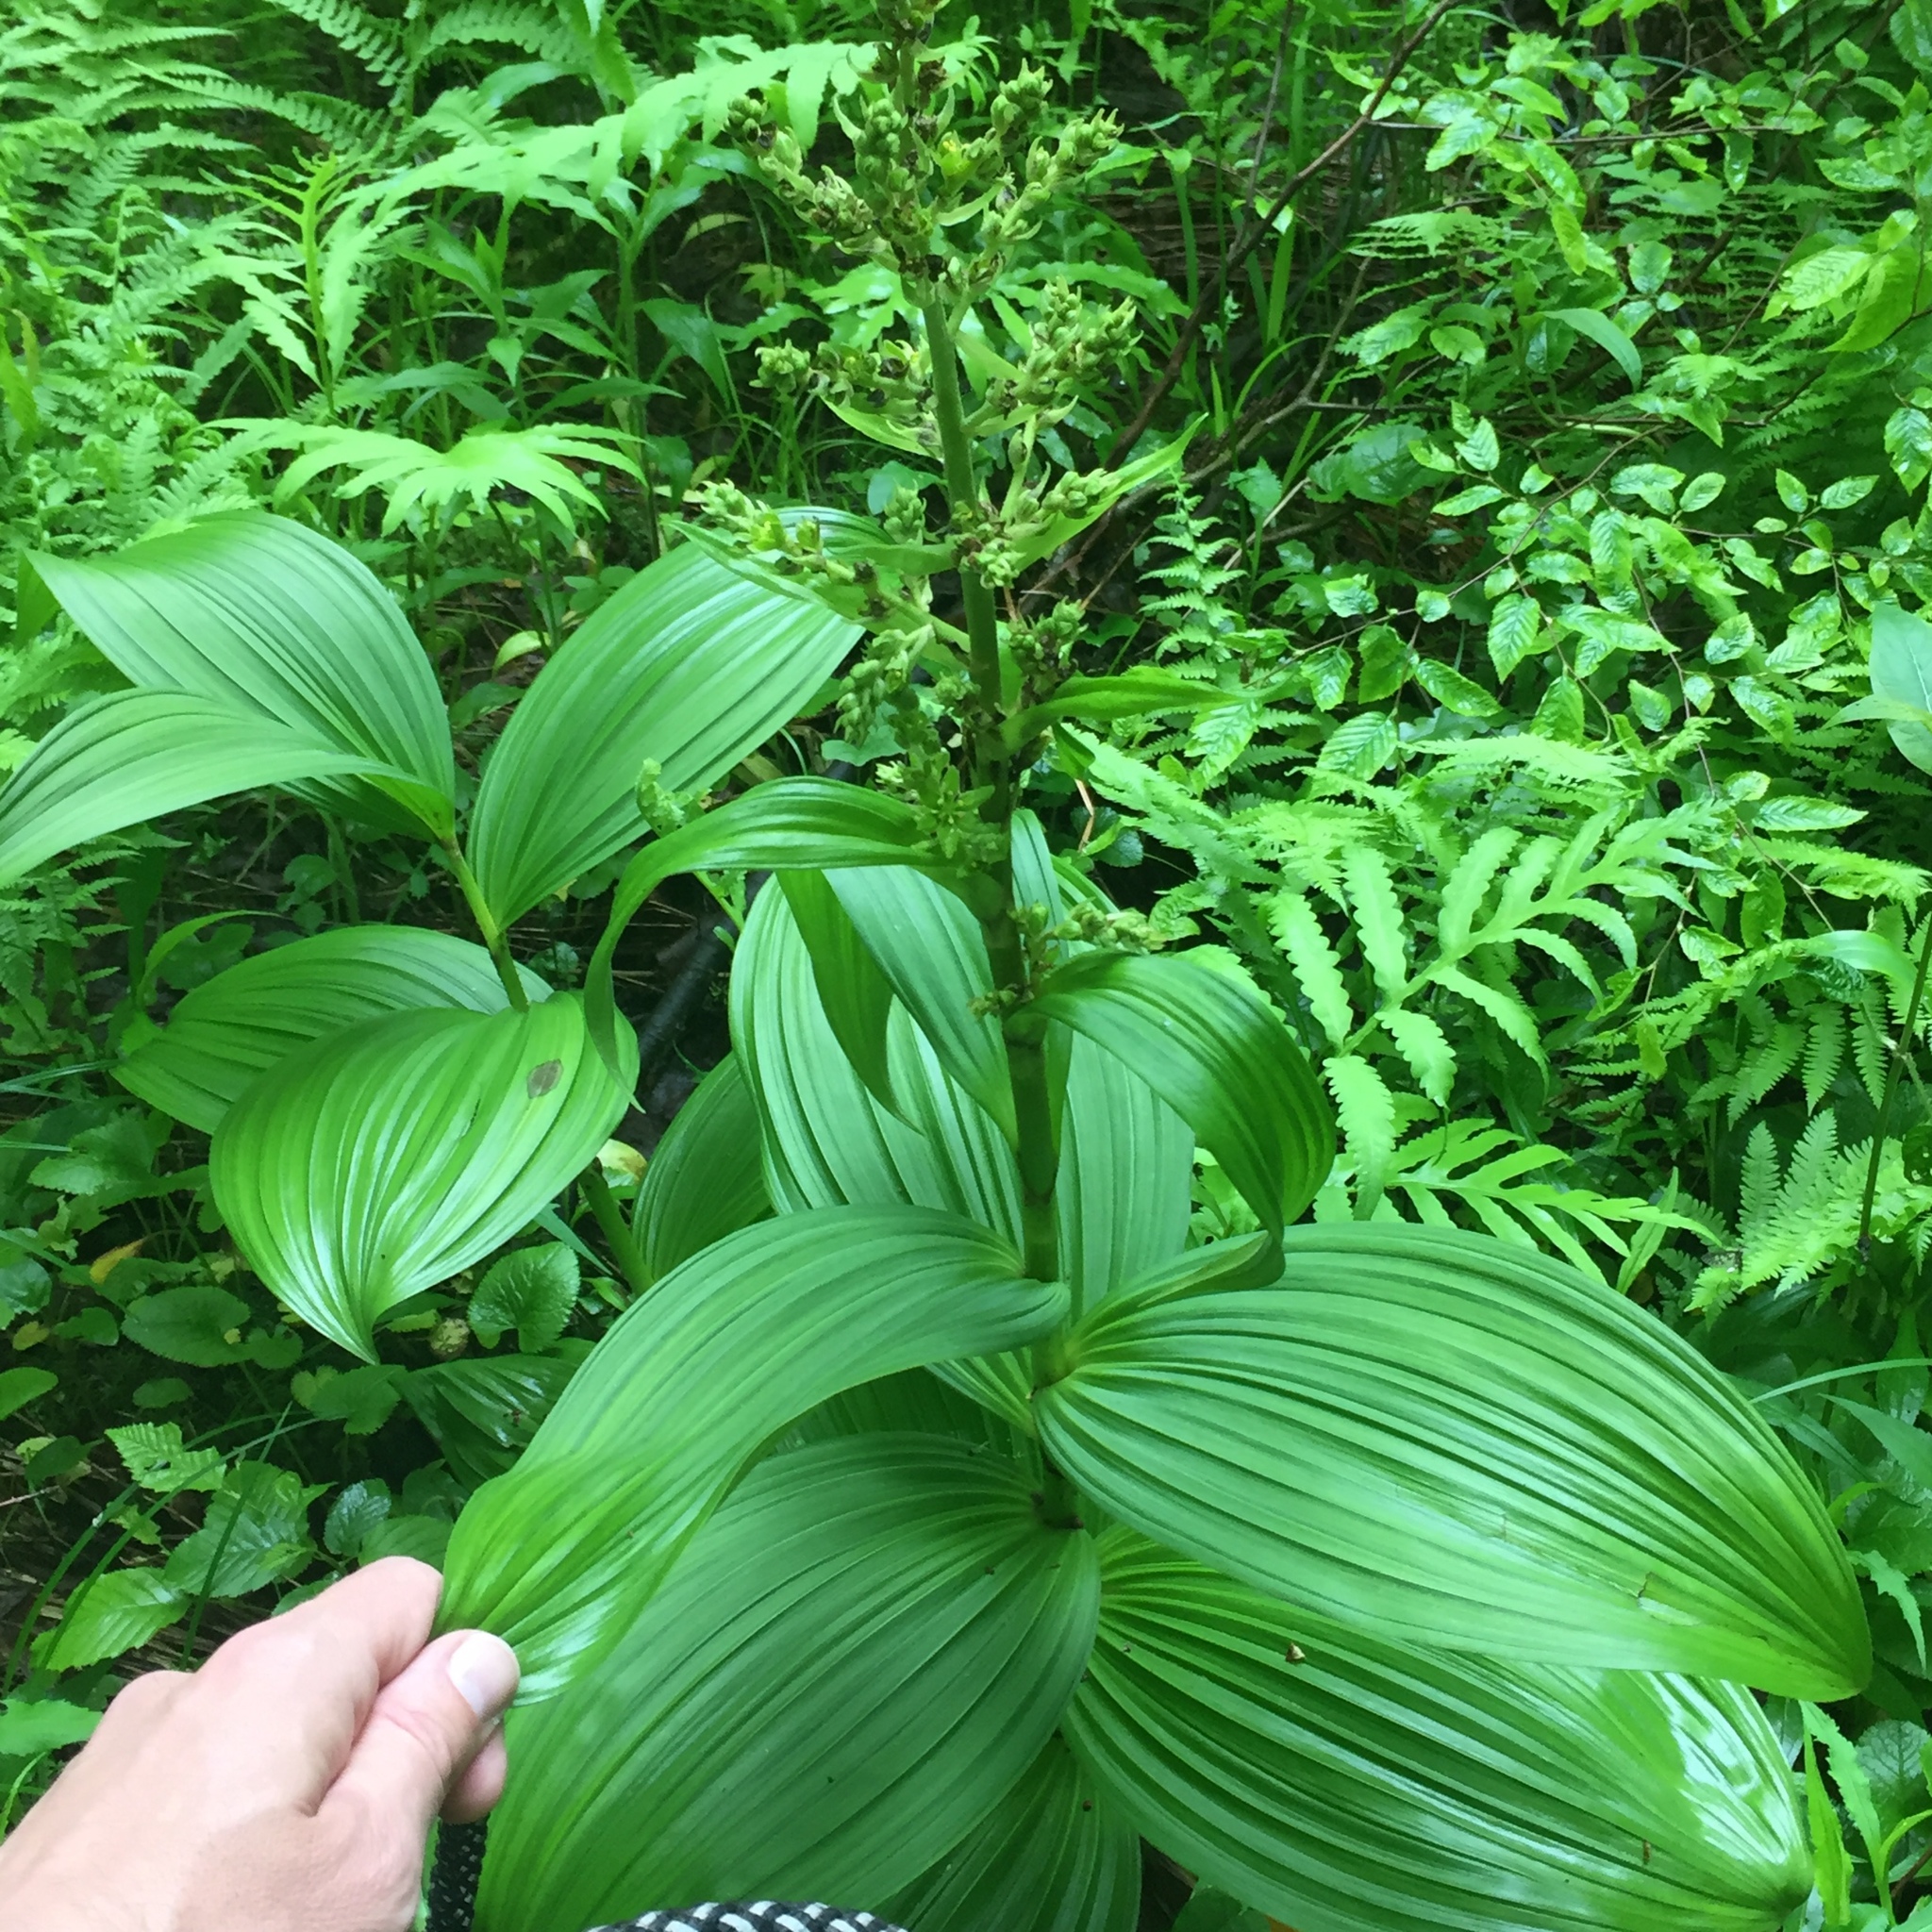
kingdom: Plantae
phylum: Tracheophyta
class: Liliopsida
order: Liliales
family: Melanthiaceae
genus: Veratrum
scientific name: Veratrum viride
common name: American false hellebore
